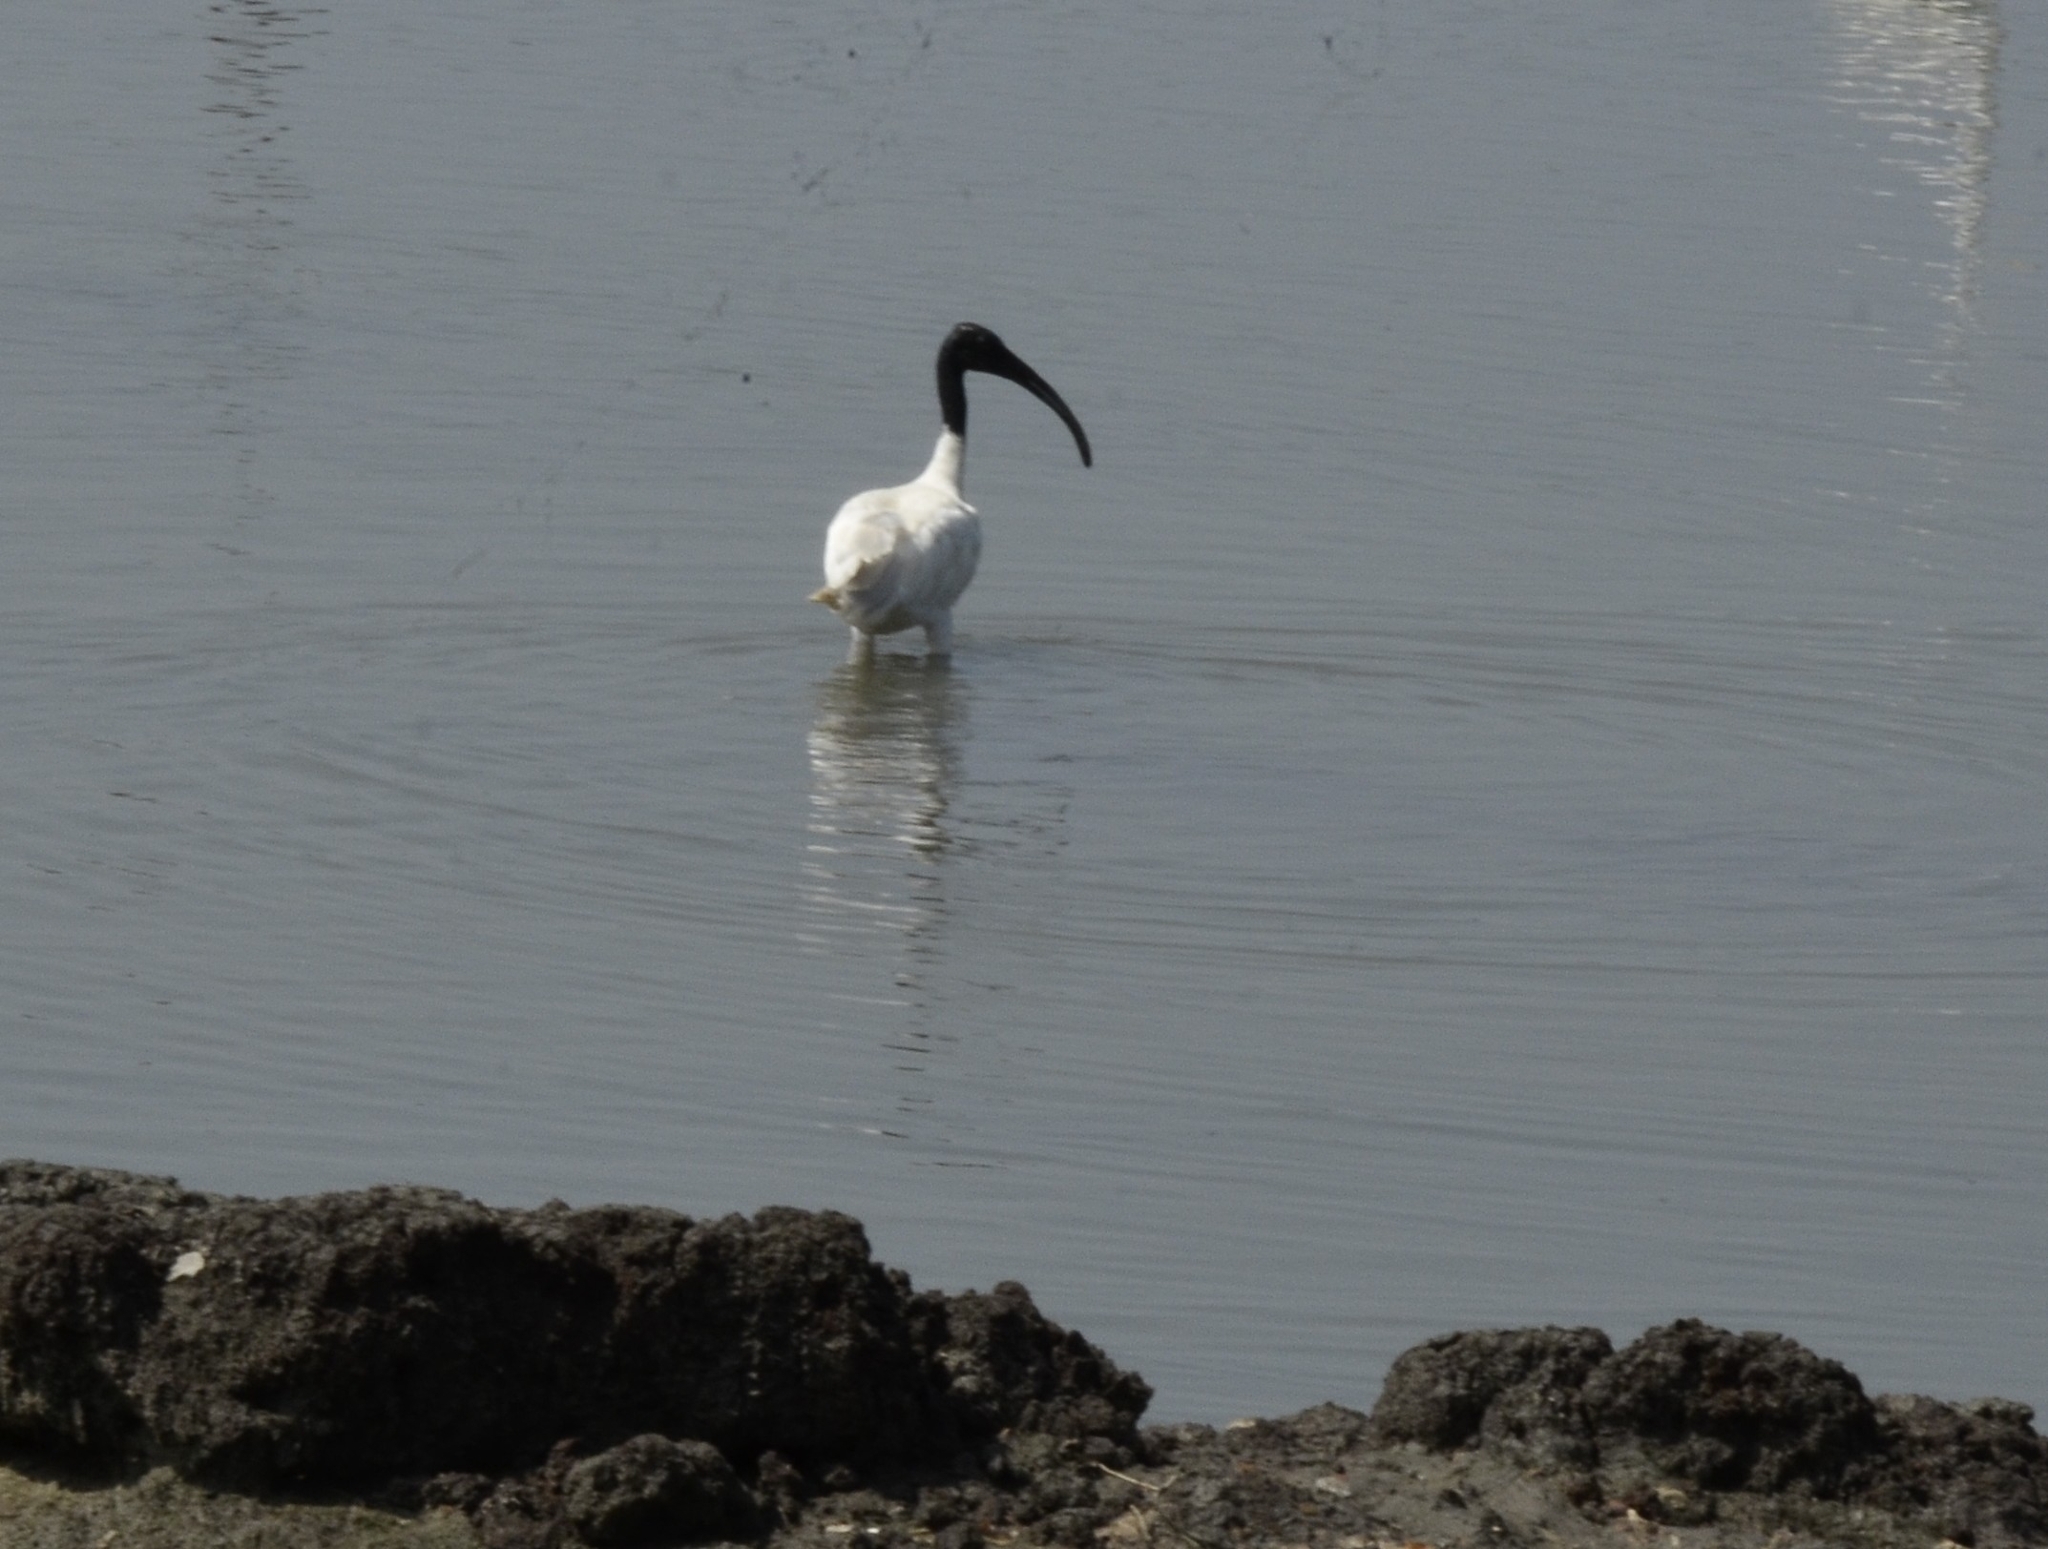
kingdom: Animalia
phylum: Chordata
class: Aves
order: Pelecaniformes
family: Threskiornithidae
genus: Threskiornis
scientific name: Threskiornis melanocephalus
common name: Black-headed ibis
